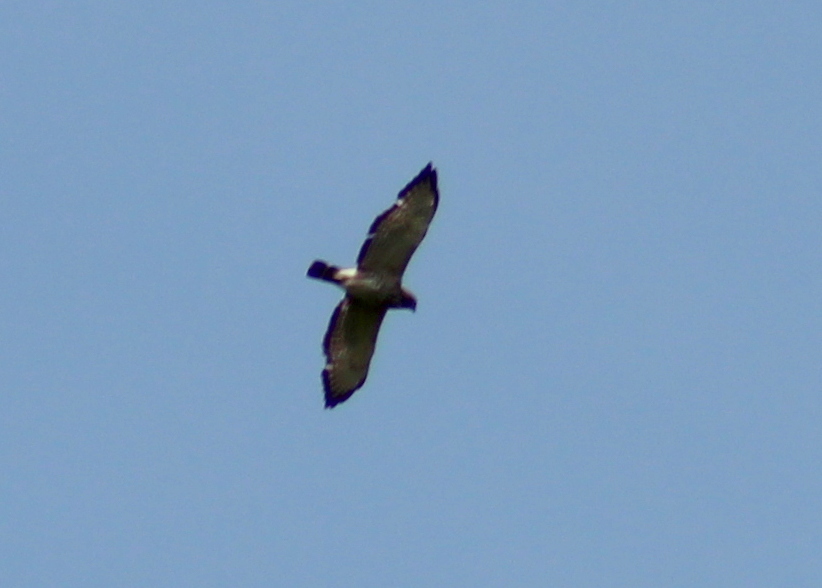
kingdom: Animalia
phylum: Chordata
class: Aves
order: Accipitriformes
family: Accipitridae
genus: Buteo
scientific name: Buteo platypterus
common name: Broad-winged hawk
